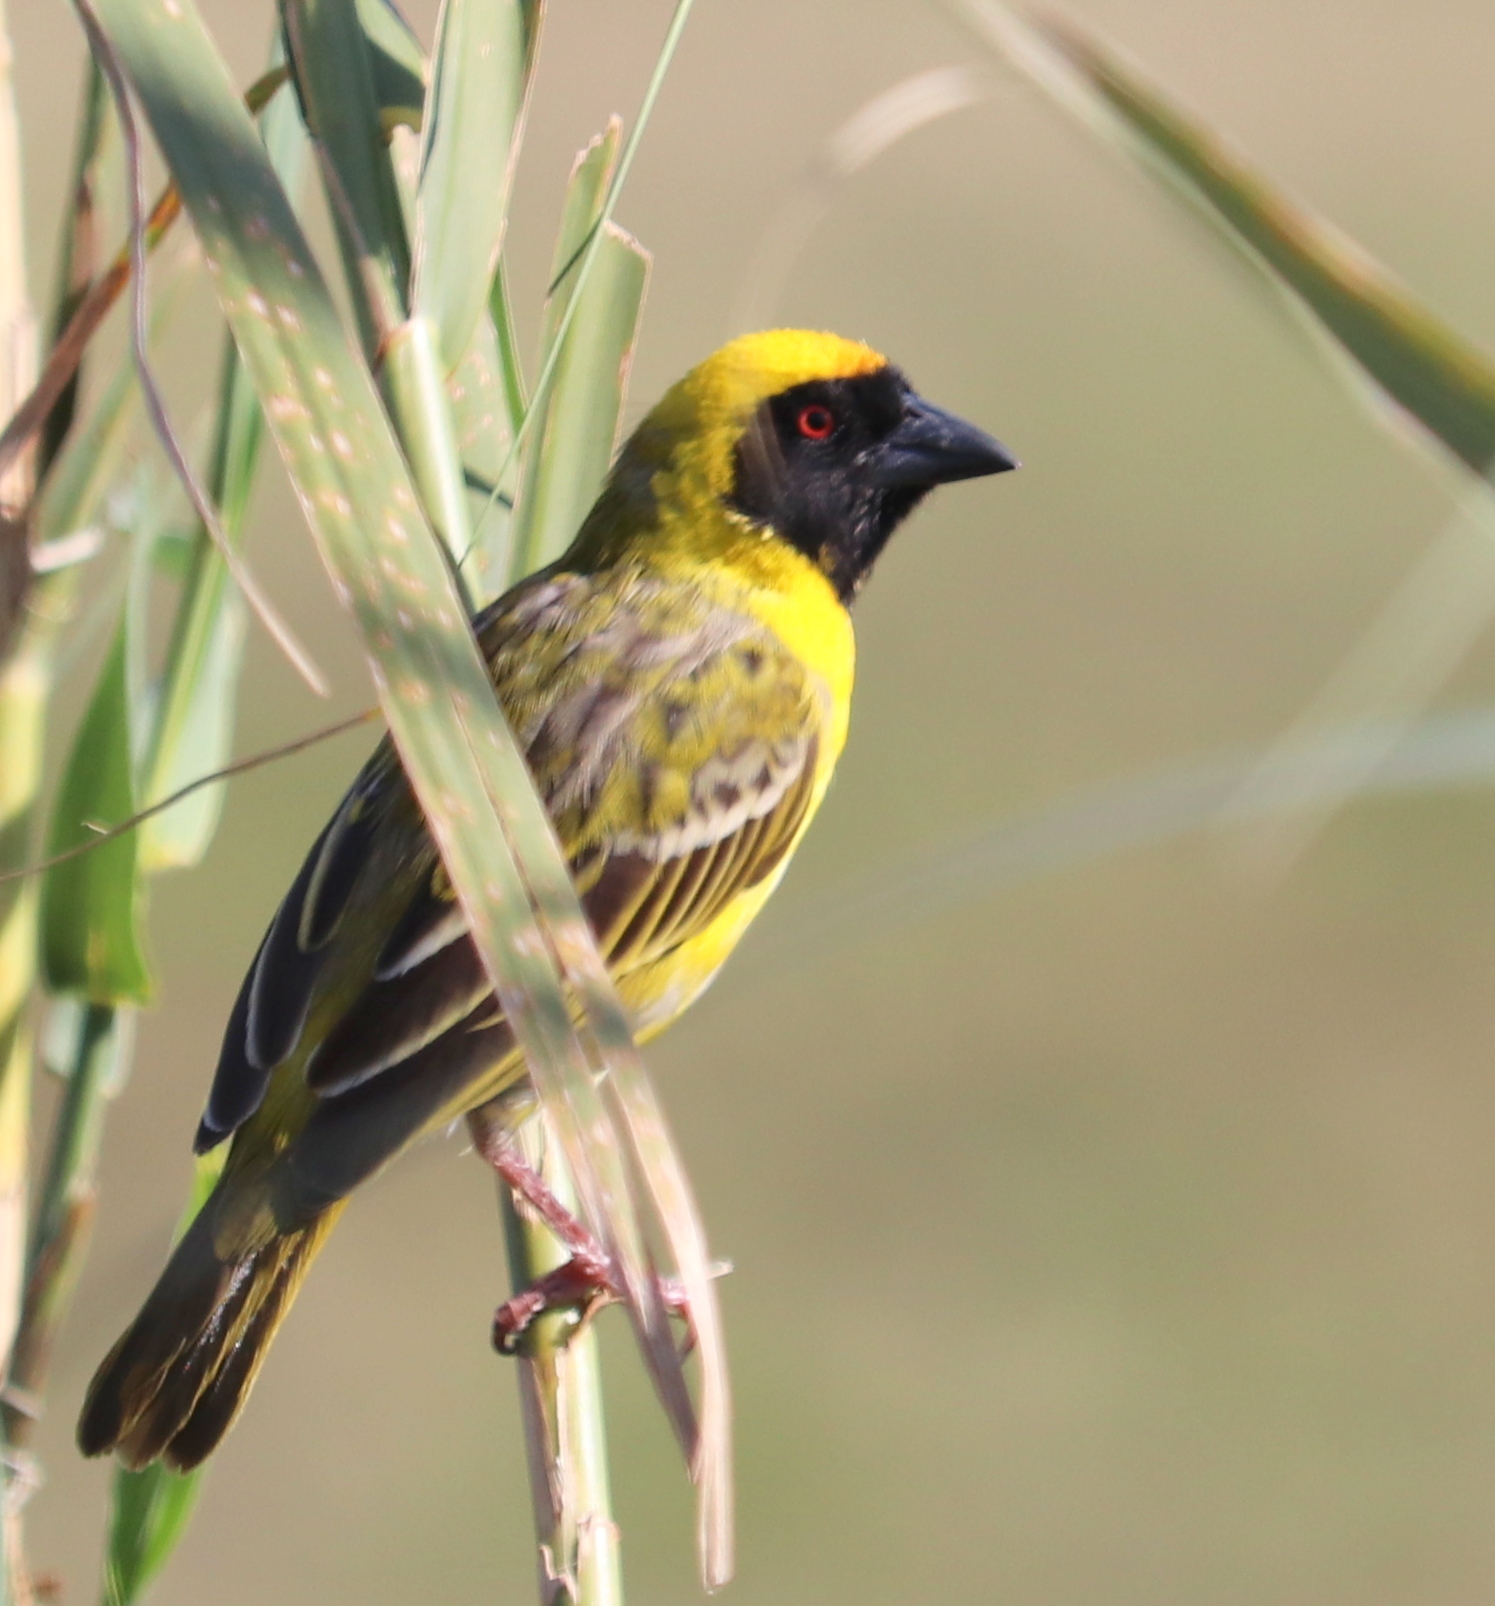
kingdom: Animalia
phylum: Chordata
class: Aves
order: Passeriformes
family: Ploceidae
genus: Ploceus
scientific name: Ploceus velatus
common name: Southern masked weaver
